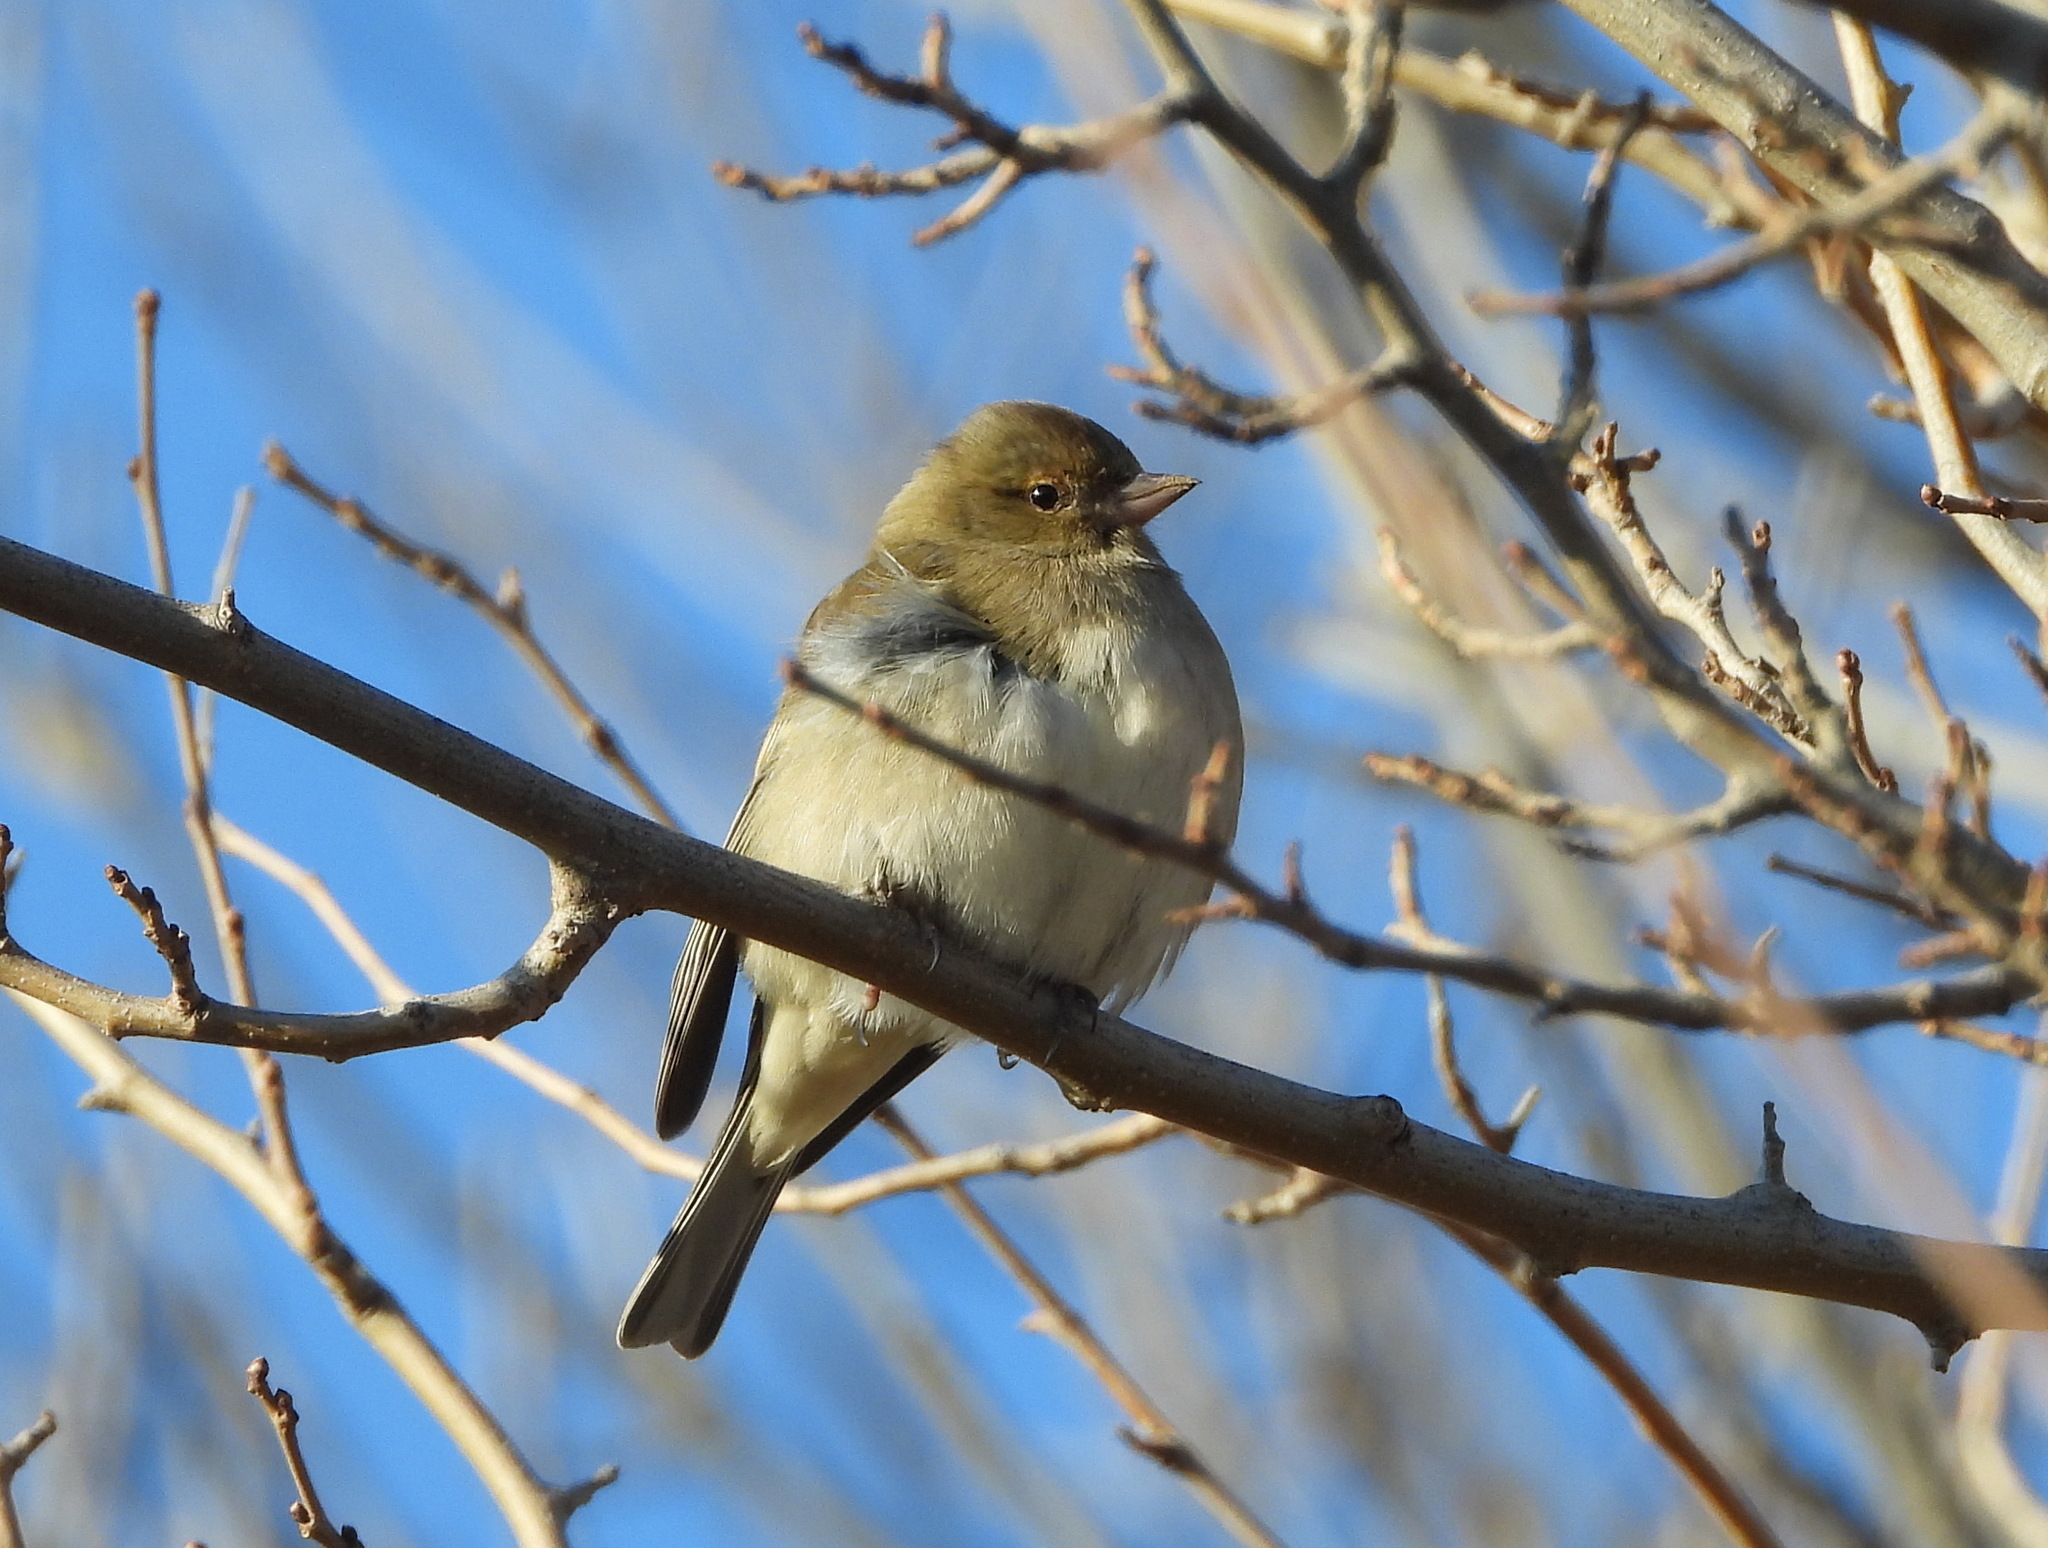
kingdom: Animalia
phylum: Chordata
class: Aves
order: Passeriformes
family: Fringillidae
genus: Fringilla
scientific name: Fringilla coelebs
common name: Common chaffinch
